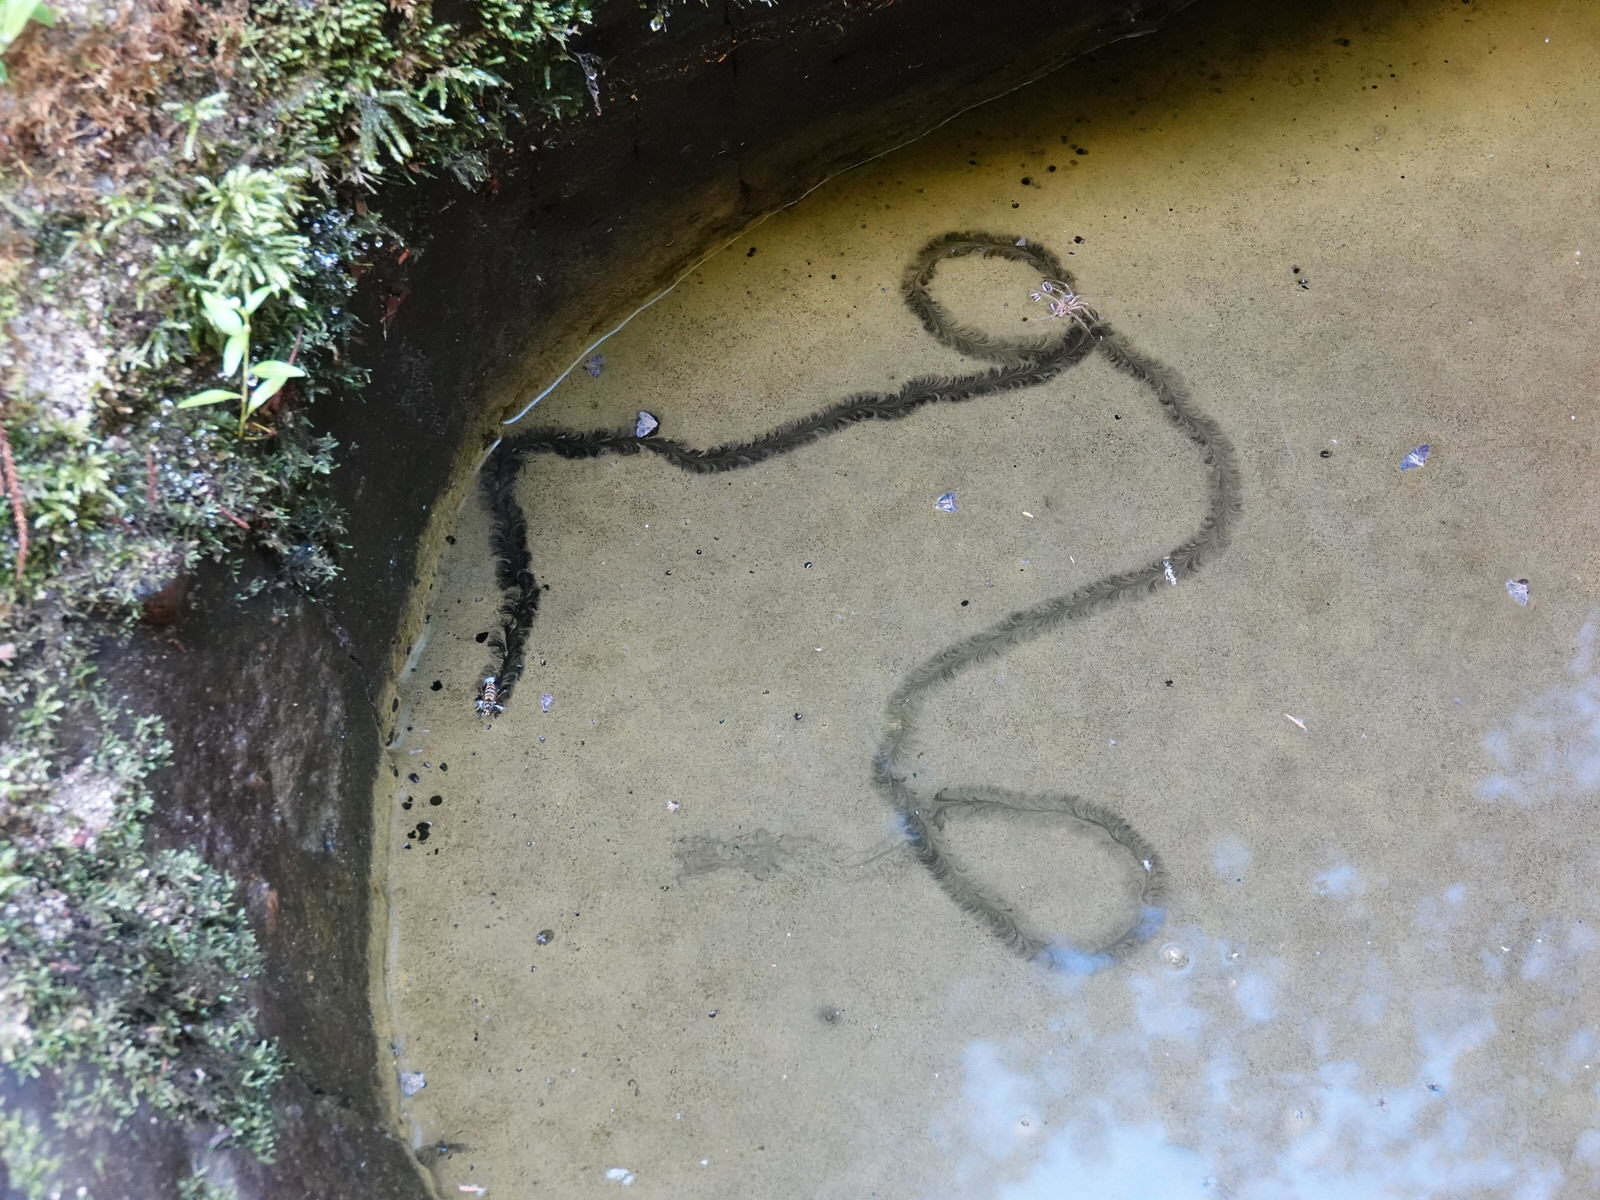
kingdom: Animalia
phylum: Arthropoda
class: Insecta
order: Hymenoptera
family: Vespidae
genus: Vespula
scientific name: Vespula vulgaris
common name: Common wasp
